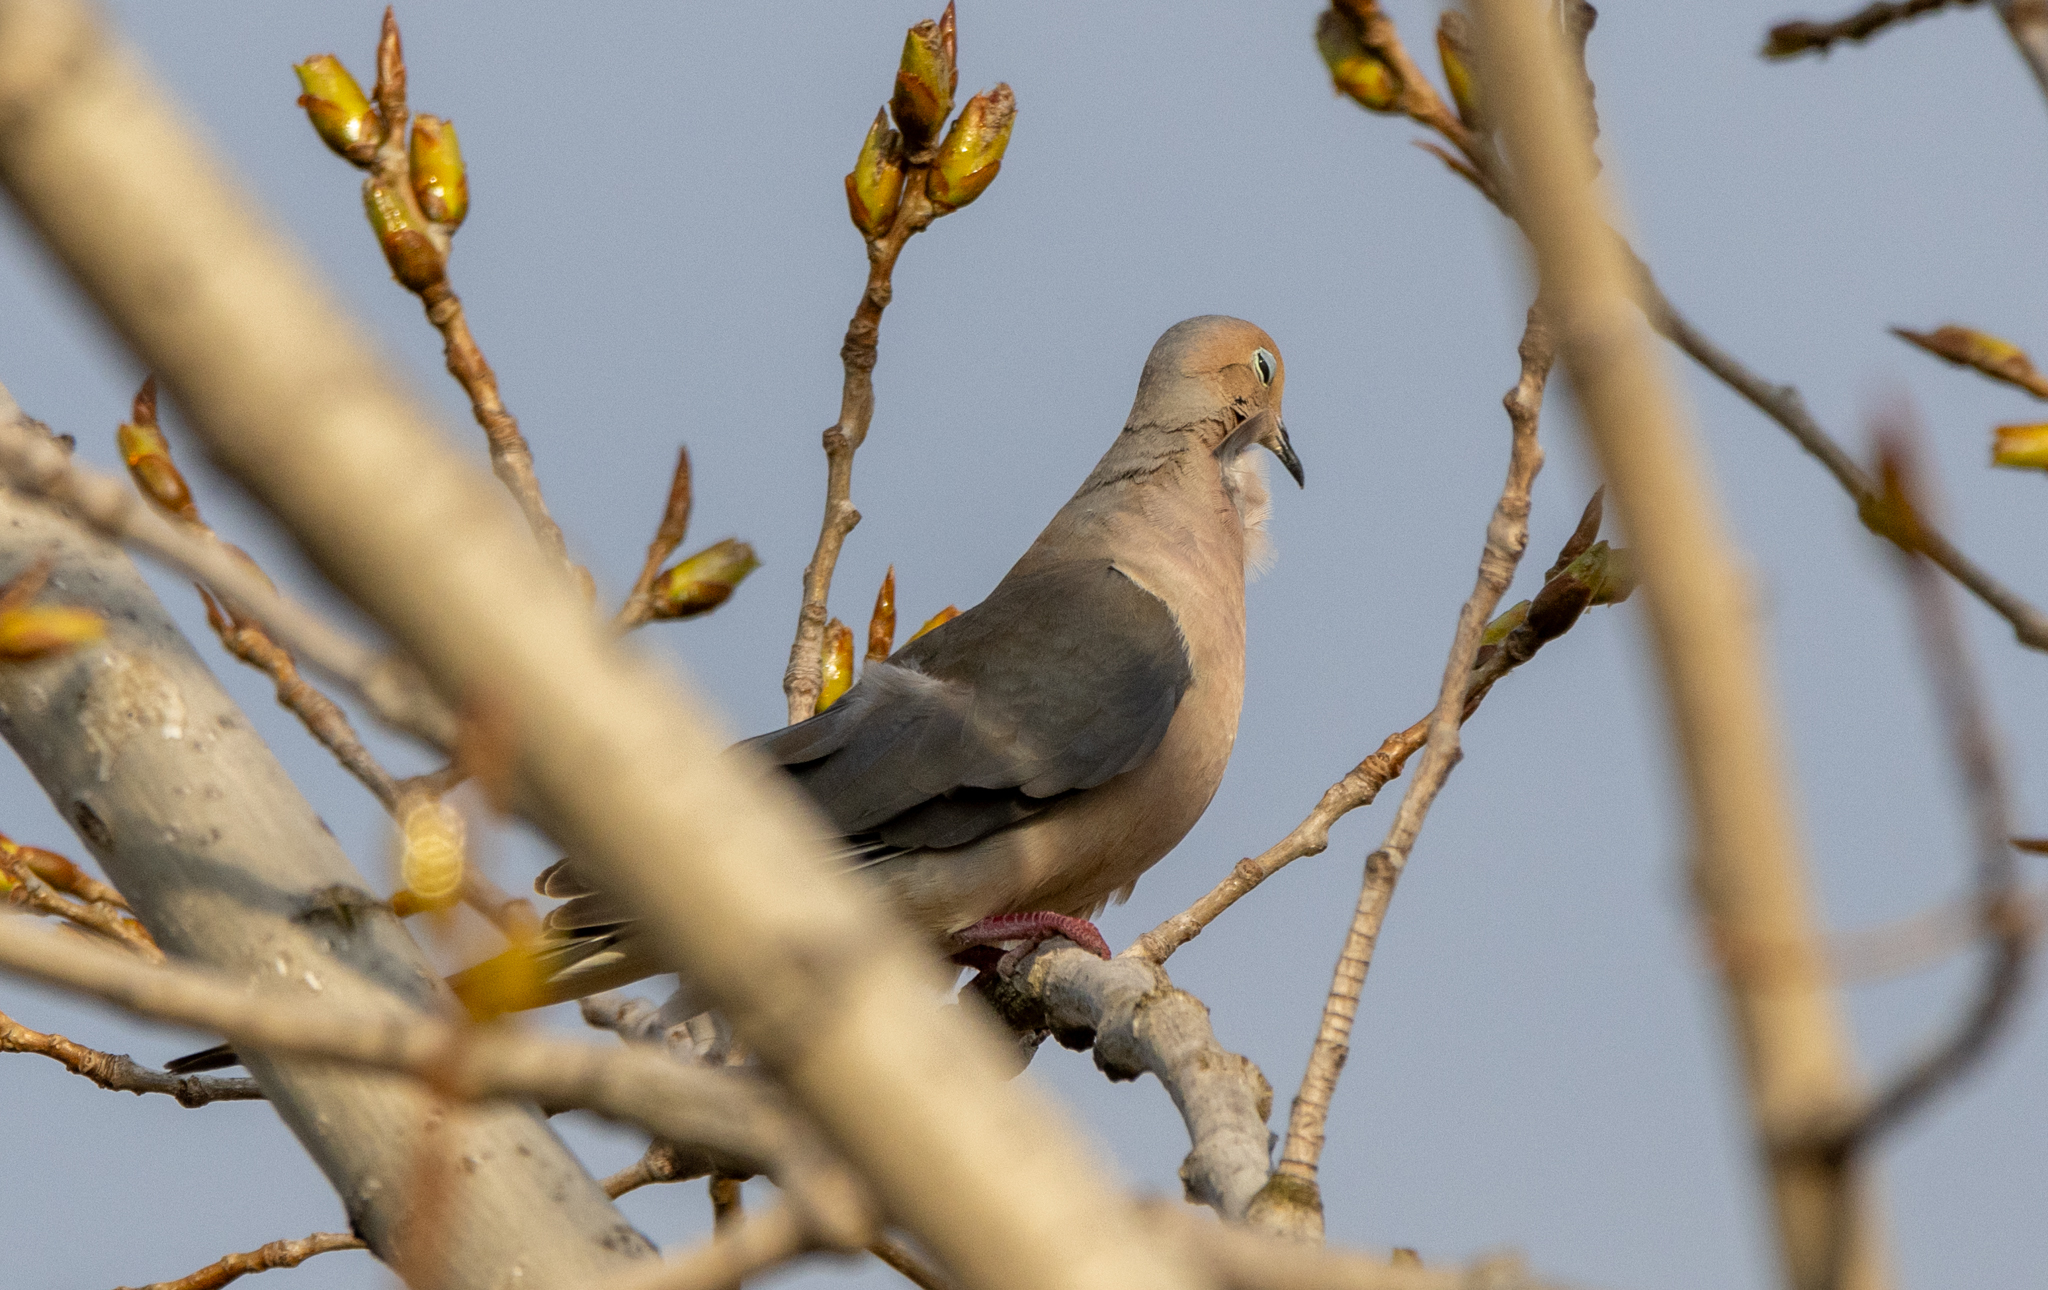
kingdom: Animalia
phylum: Chordata
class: Aves
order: Columbiformes
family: Columbidae
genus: Zenaida
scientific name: Zenaida macroura
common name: Mourning dove
